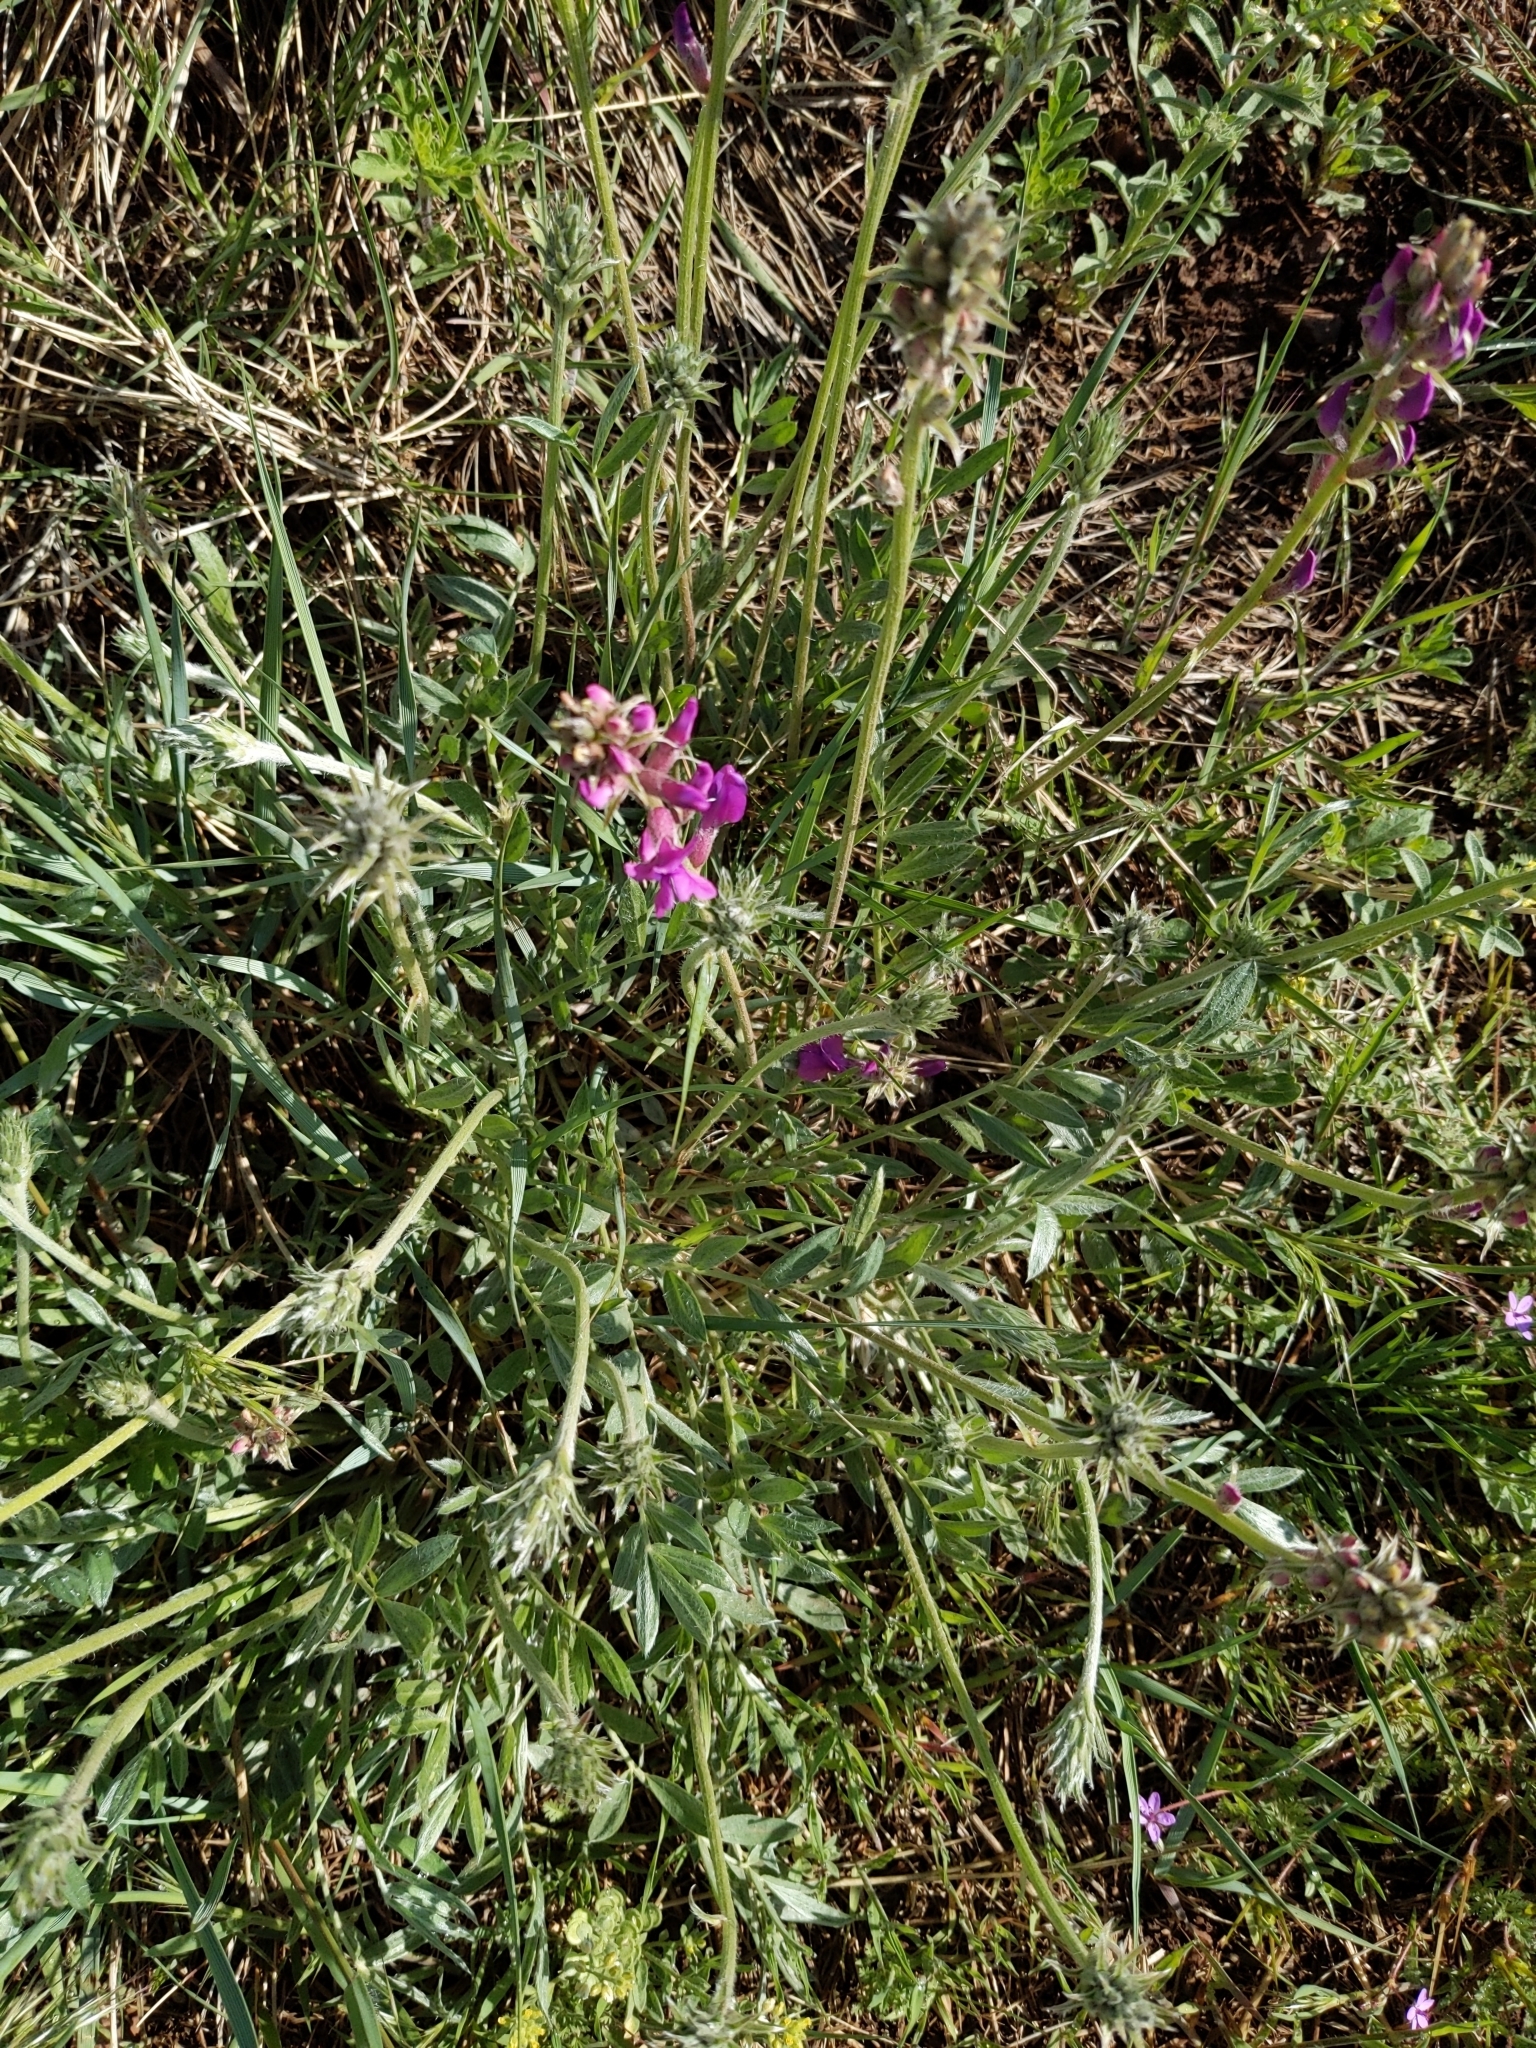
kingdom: Plantae
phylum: Tracheophyta
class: Magnoliopsida
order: Fabales
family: Fabaceae
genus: Oxytropis
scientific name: Oxytropis lambertii
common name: Purple locoweed
